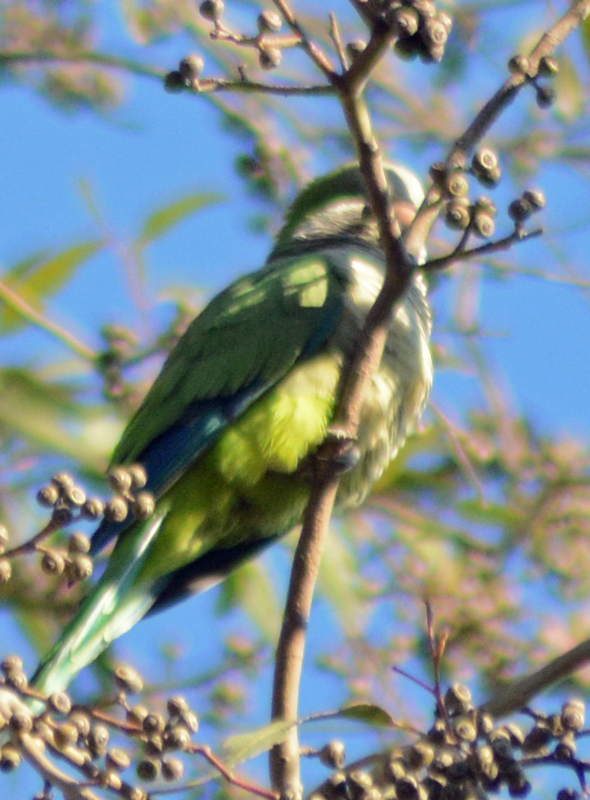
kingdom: Animalia
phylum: Chordata
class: Aves
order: Psittaciformes
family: Psittacidae
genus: Myiopsitta
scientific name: Myiopsitta monachus
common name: Monk parakeet
